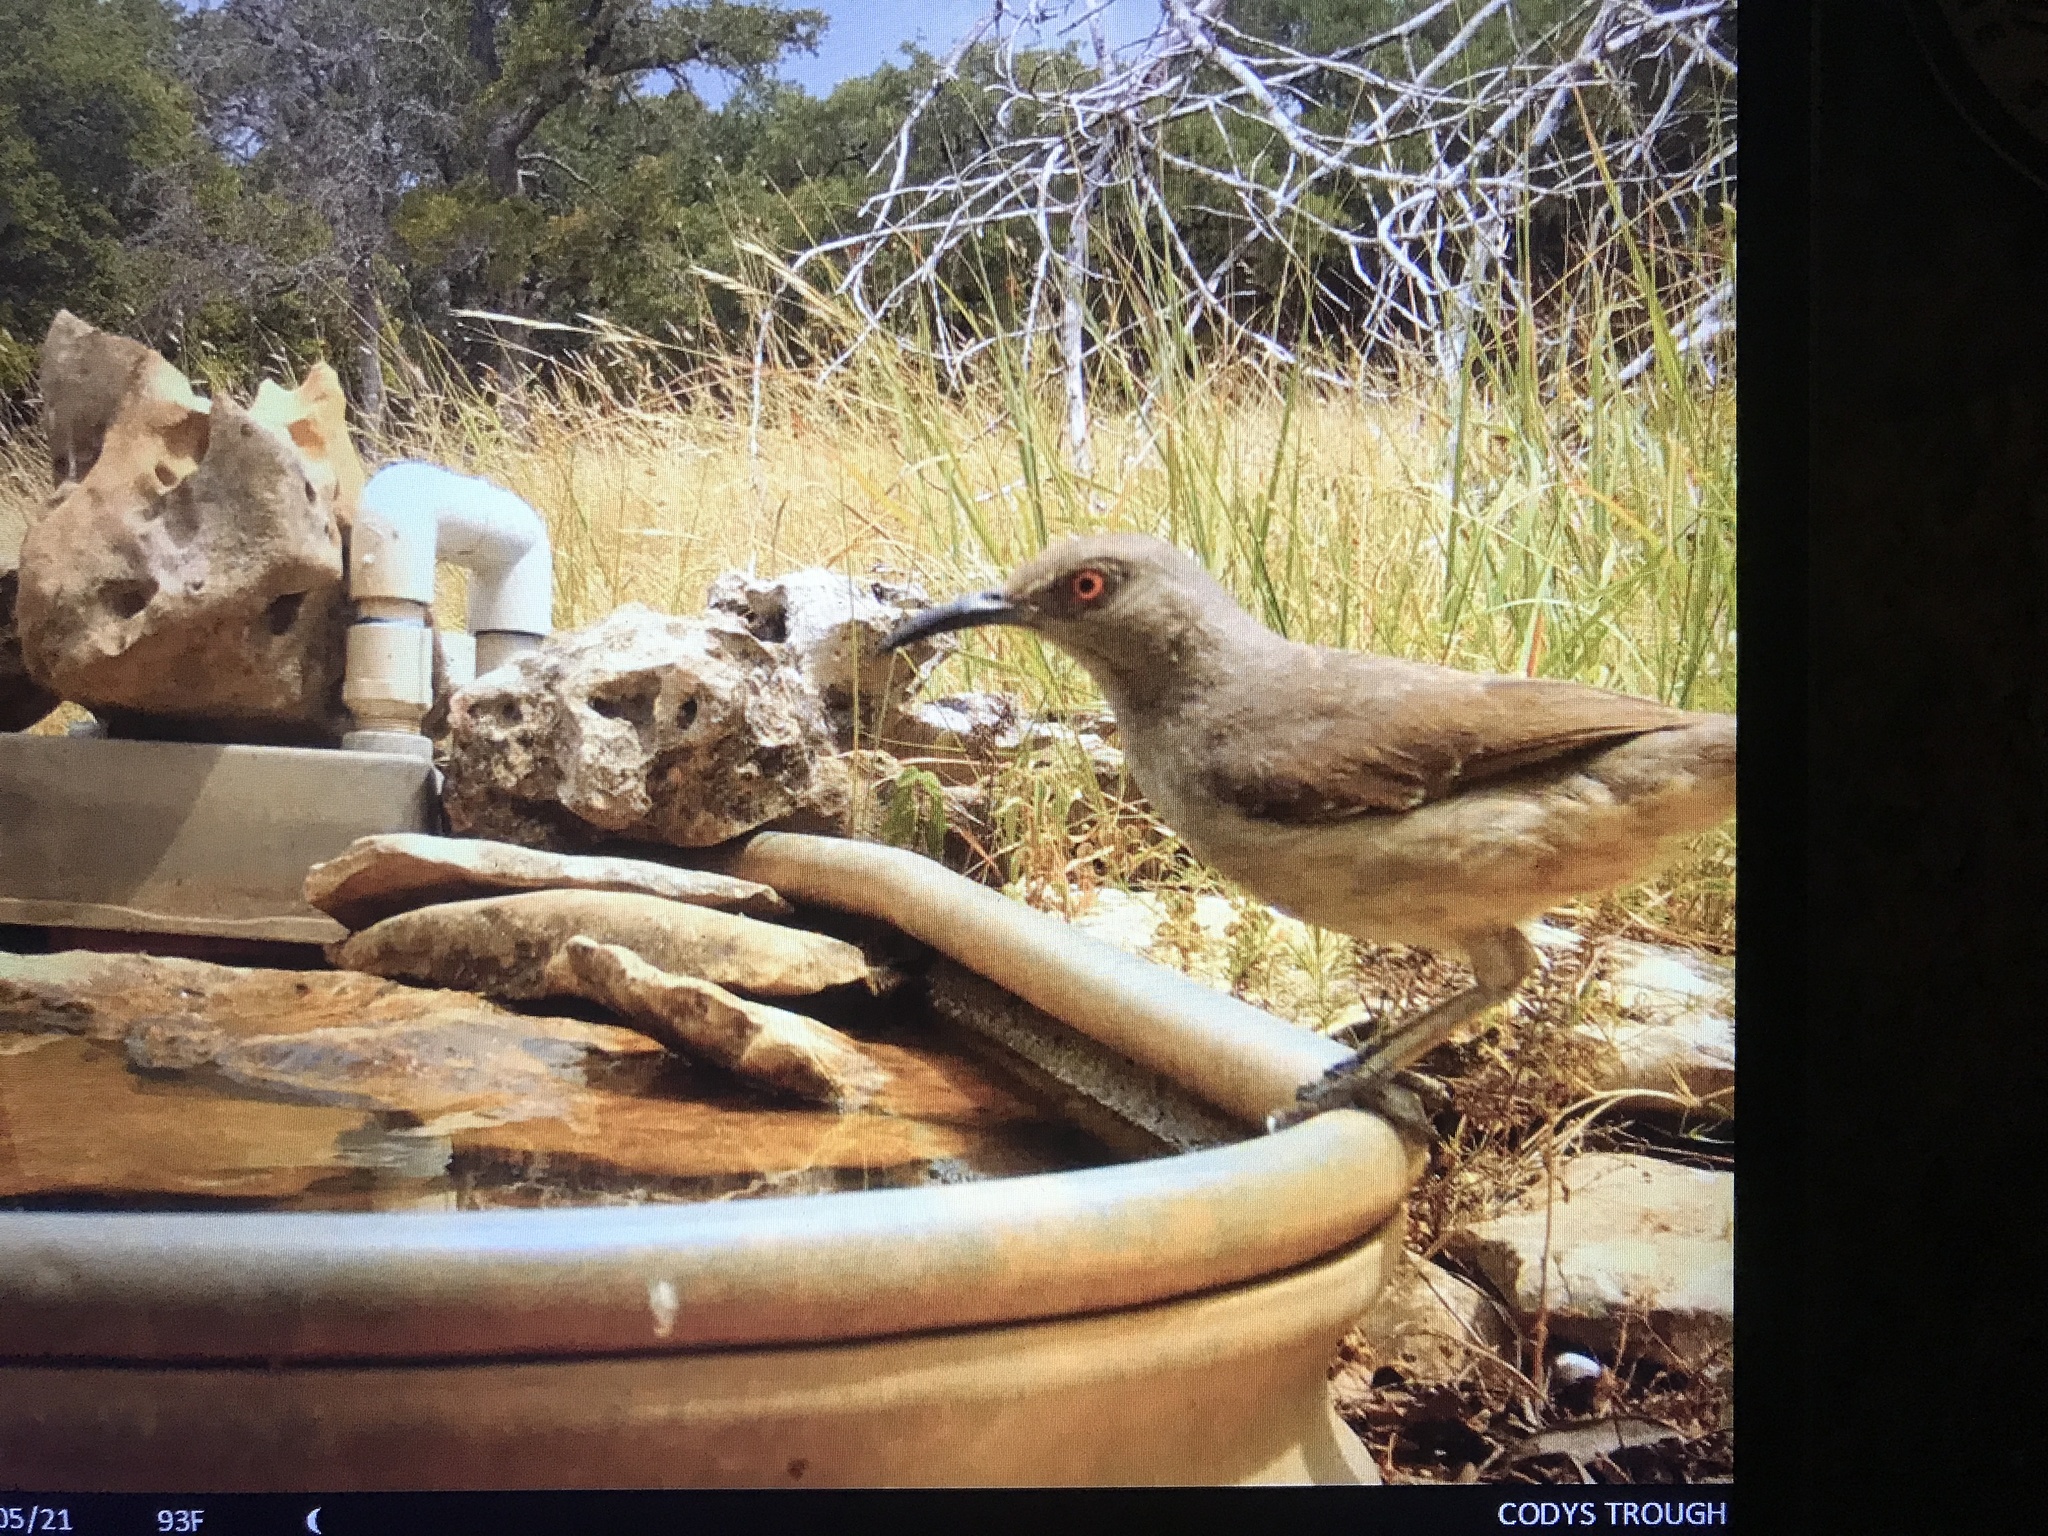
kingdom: Animalia
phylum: Chordata
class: Aves
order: Passeriformes
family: Mimidae
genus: Toxostoma
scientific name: Toxostoma curvirostre
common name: Curve-billed thrasher
